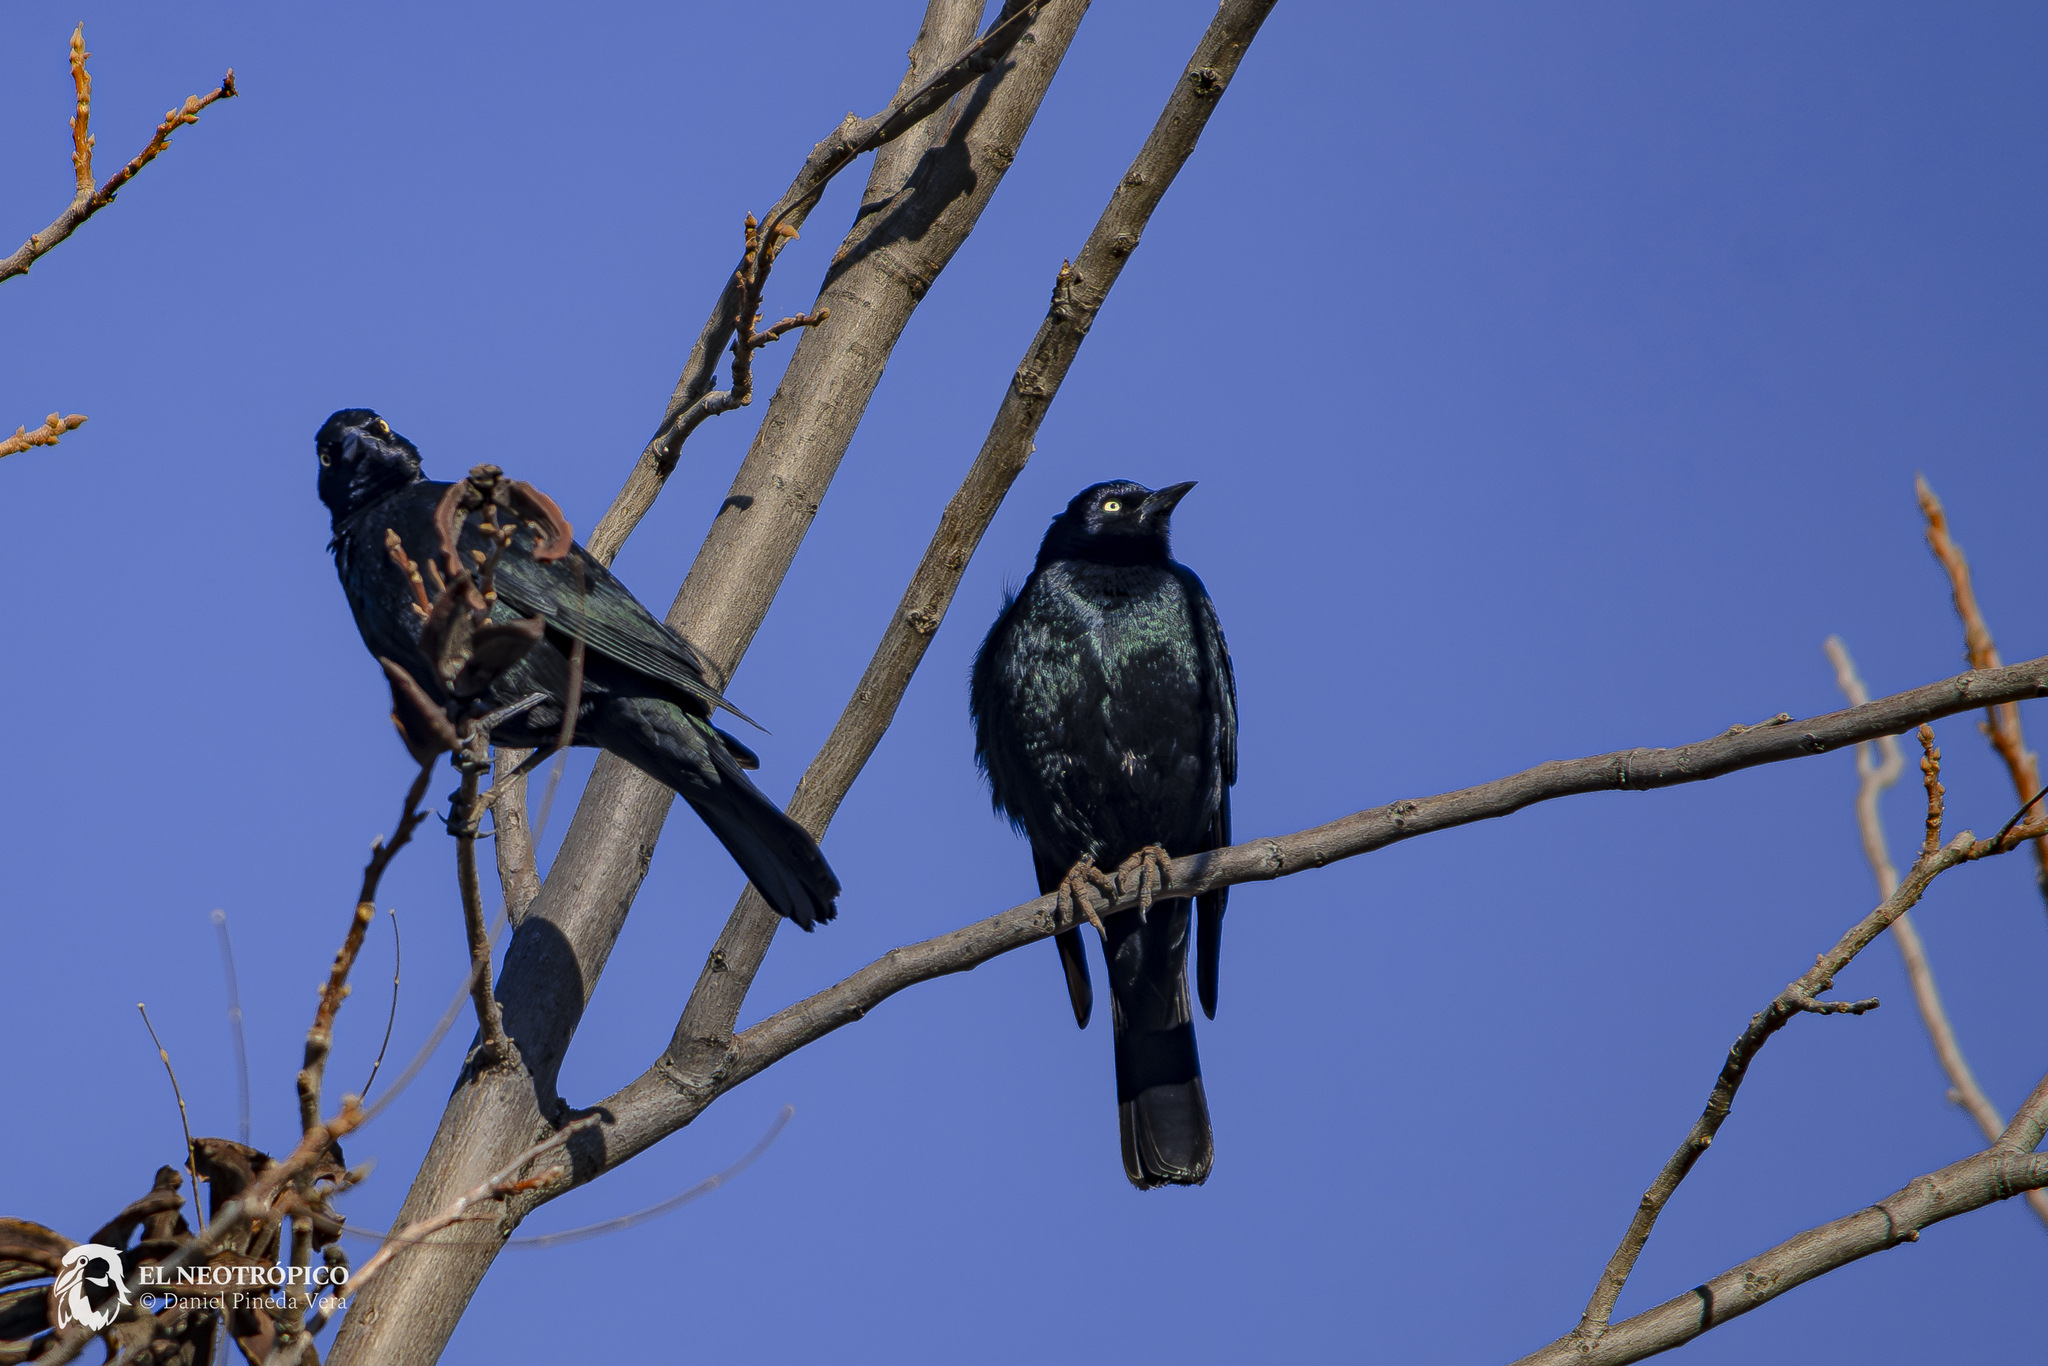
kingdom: Animalia
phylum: Chordata
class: Aves
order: Passeriformes
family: Icteridae
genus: Euphagus
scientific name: Euphagus cyanocephalus
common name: Brewer's blackbird
